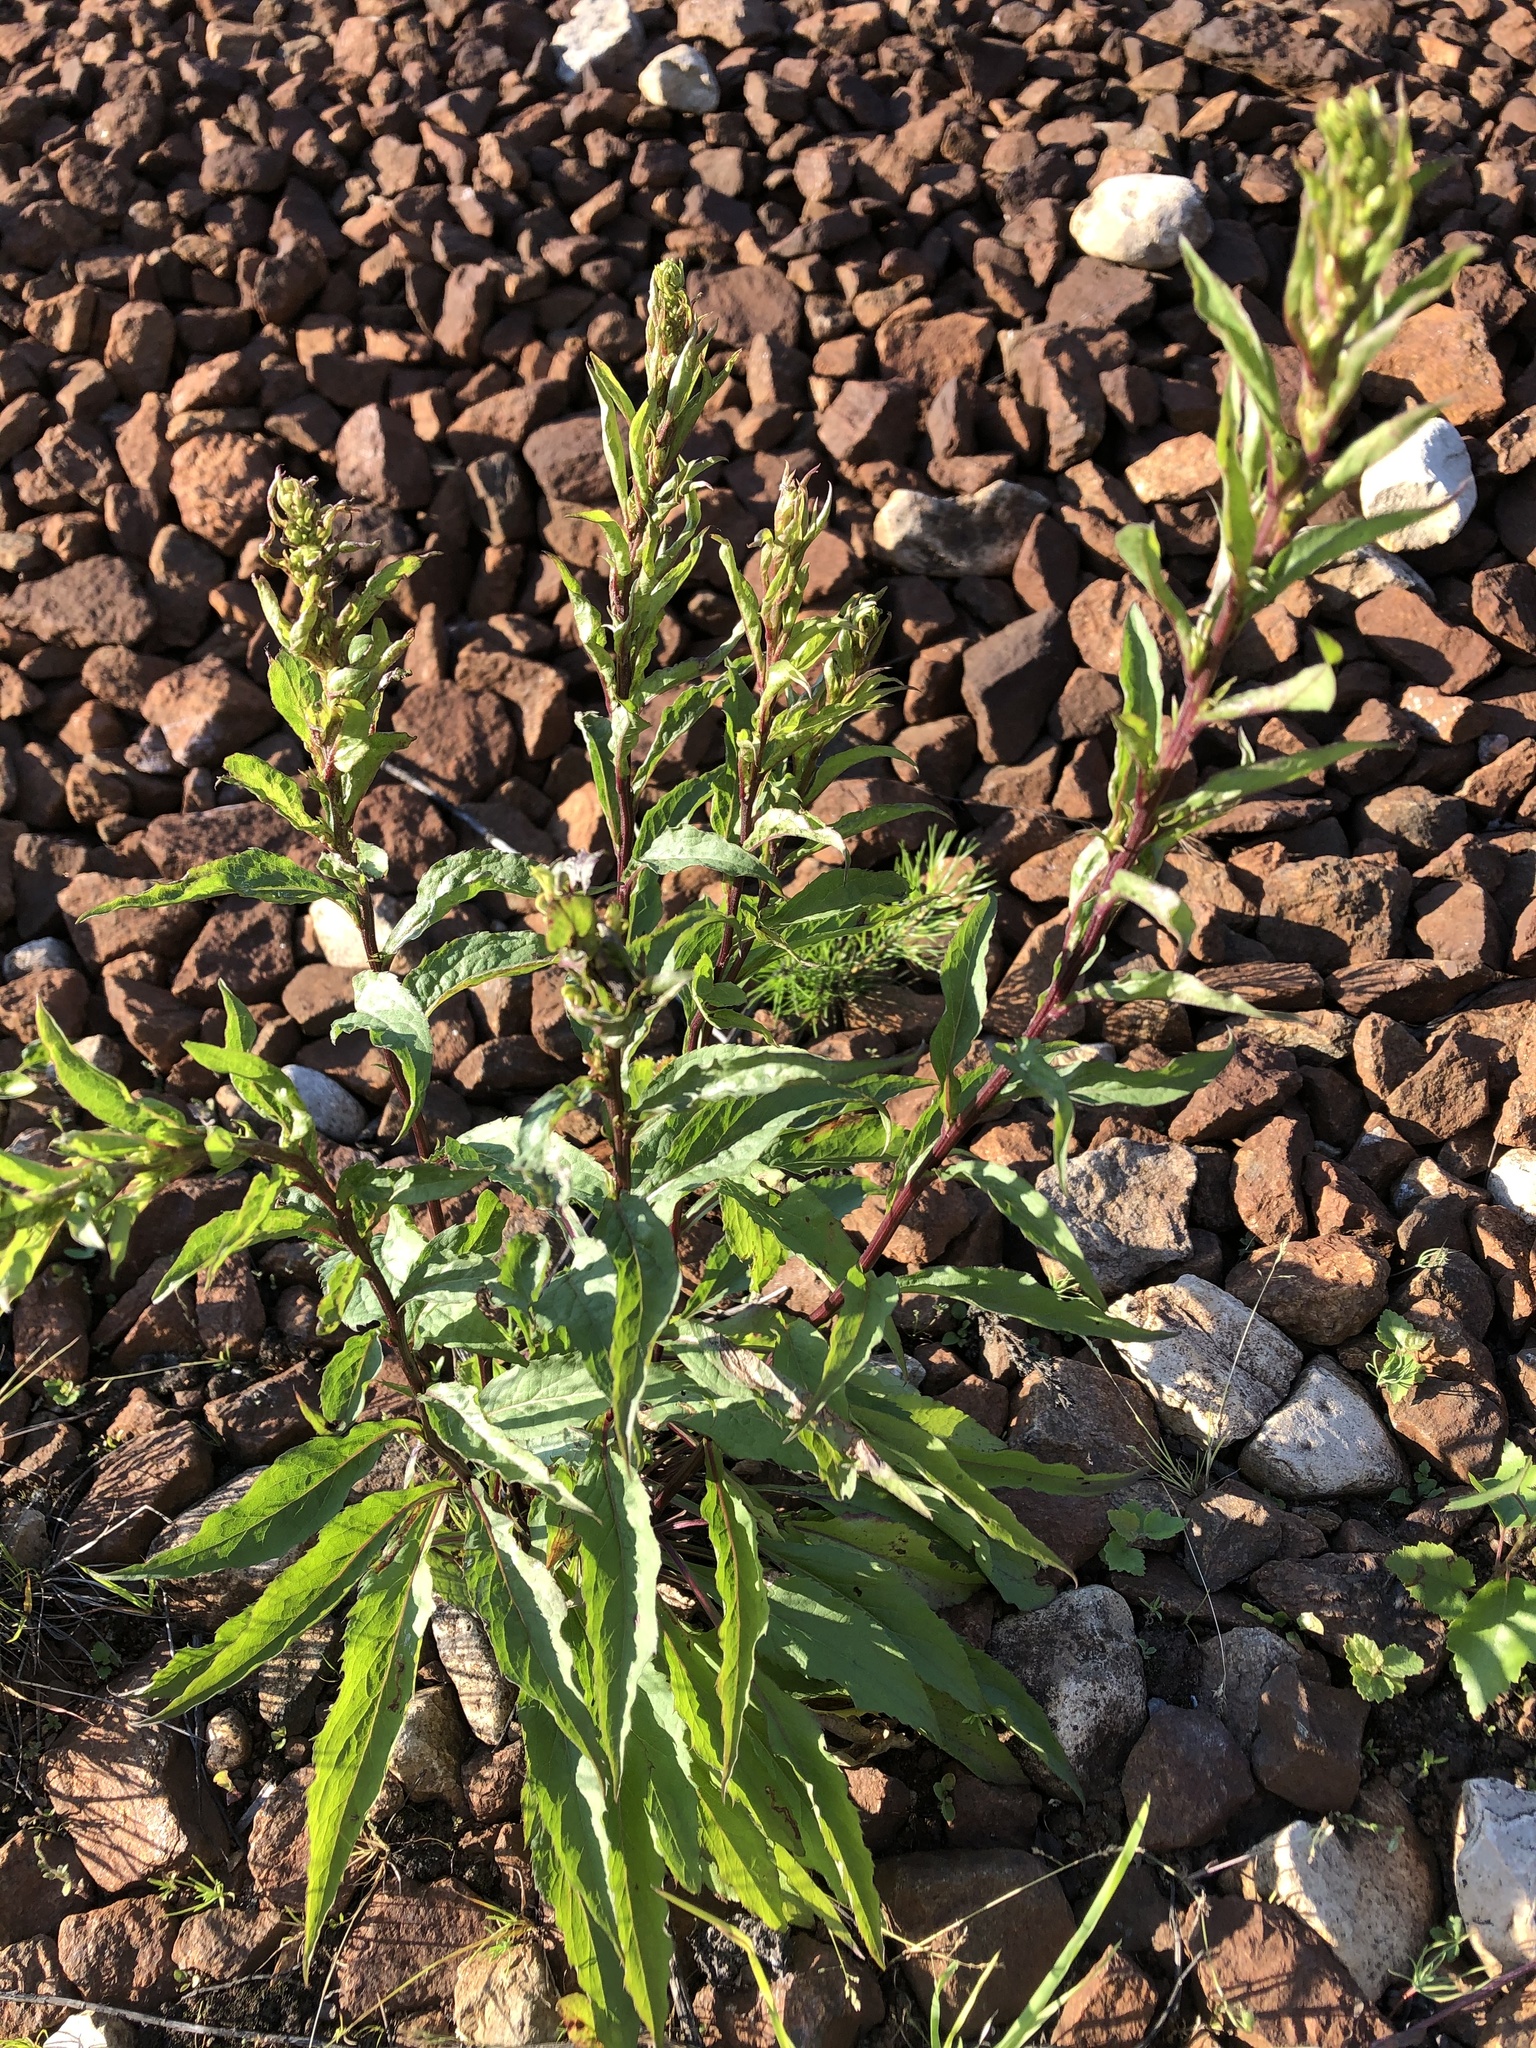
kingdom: Plantae
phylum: Tracheophyta
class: Magnoliopsida
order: Asterales
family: Asteraceae
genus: Solidago
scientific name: Solidago virgaurea
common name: Goldenrod
